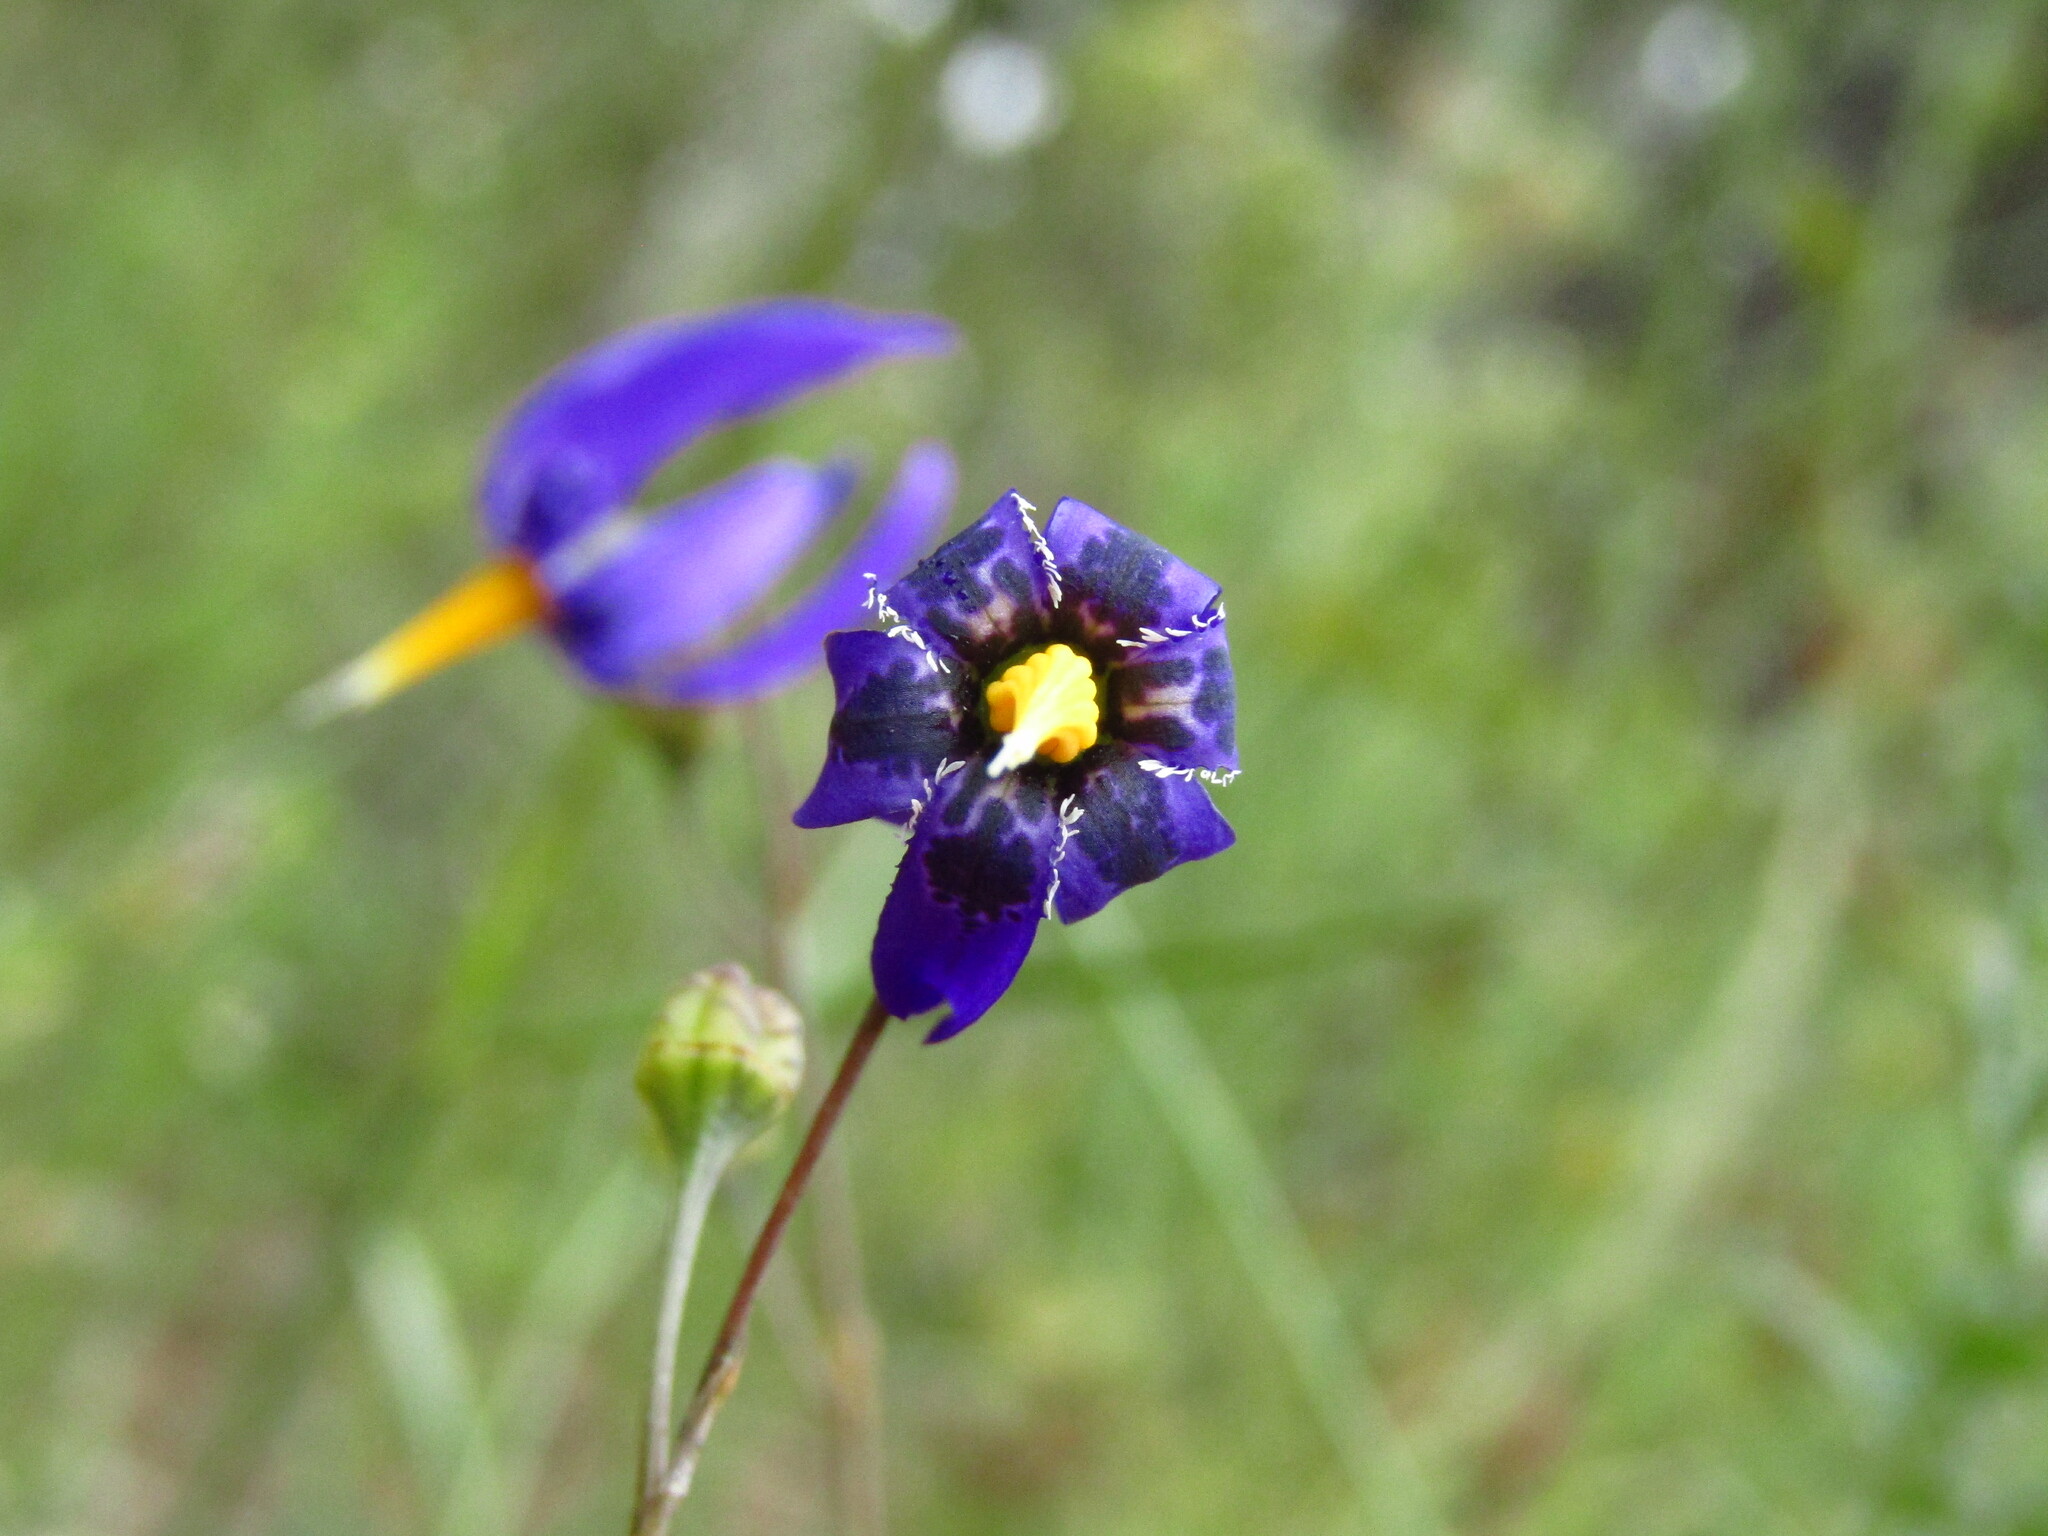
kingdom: Plantae
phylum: Tracheophyta
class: Liliopsida
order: Asparagales
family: Tecophilaeaceae
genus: Conanthera
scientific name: Conanthera bifolia
